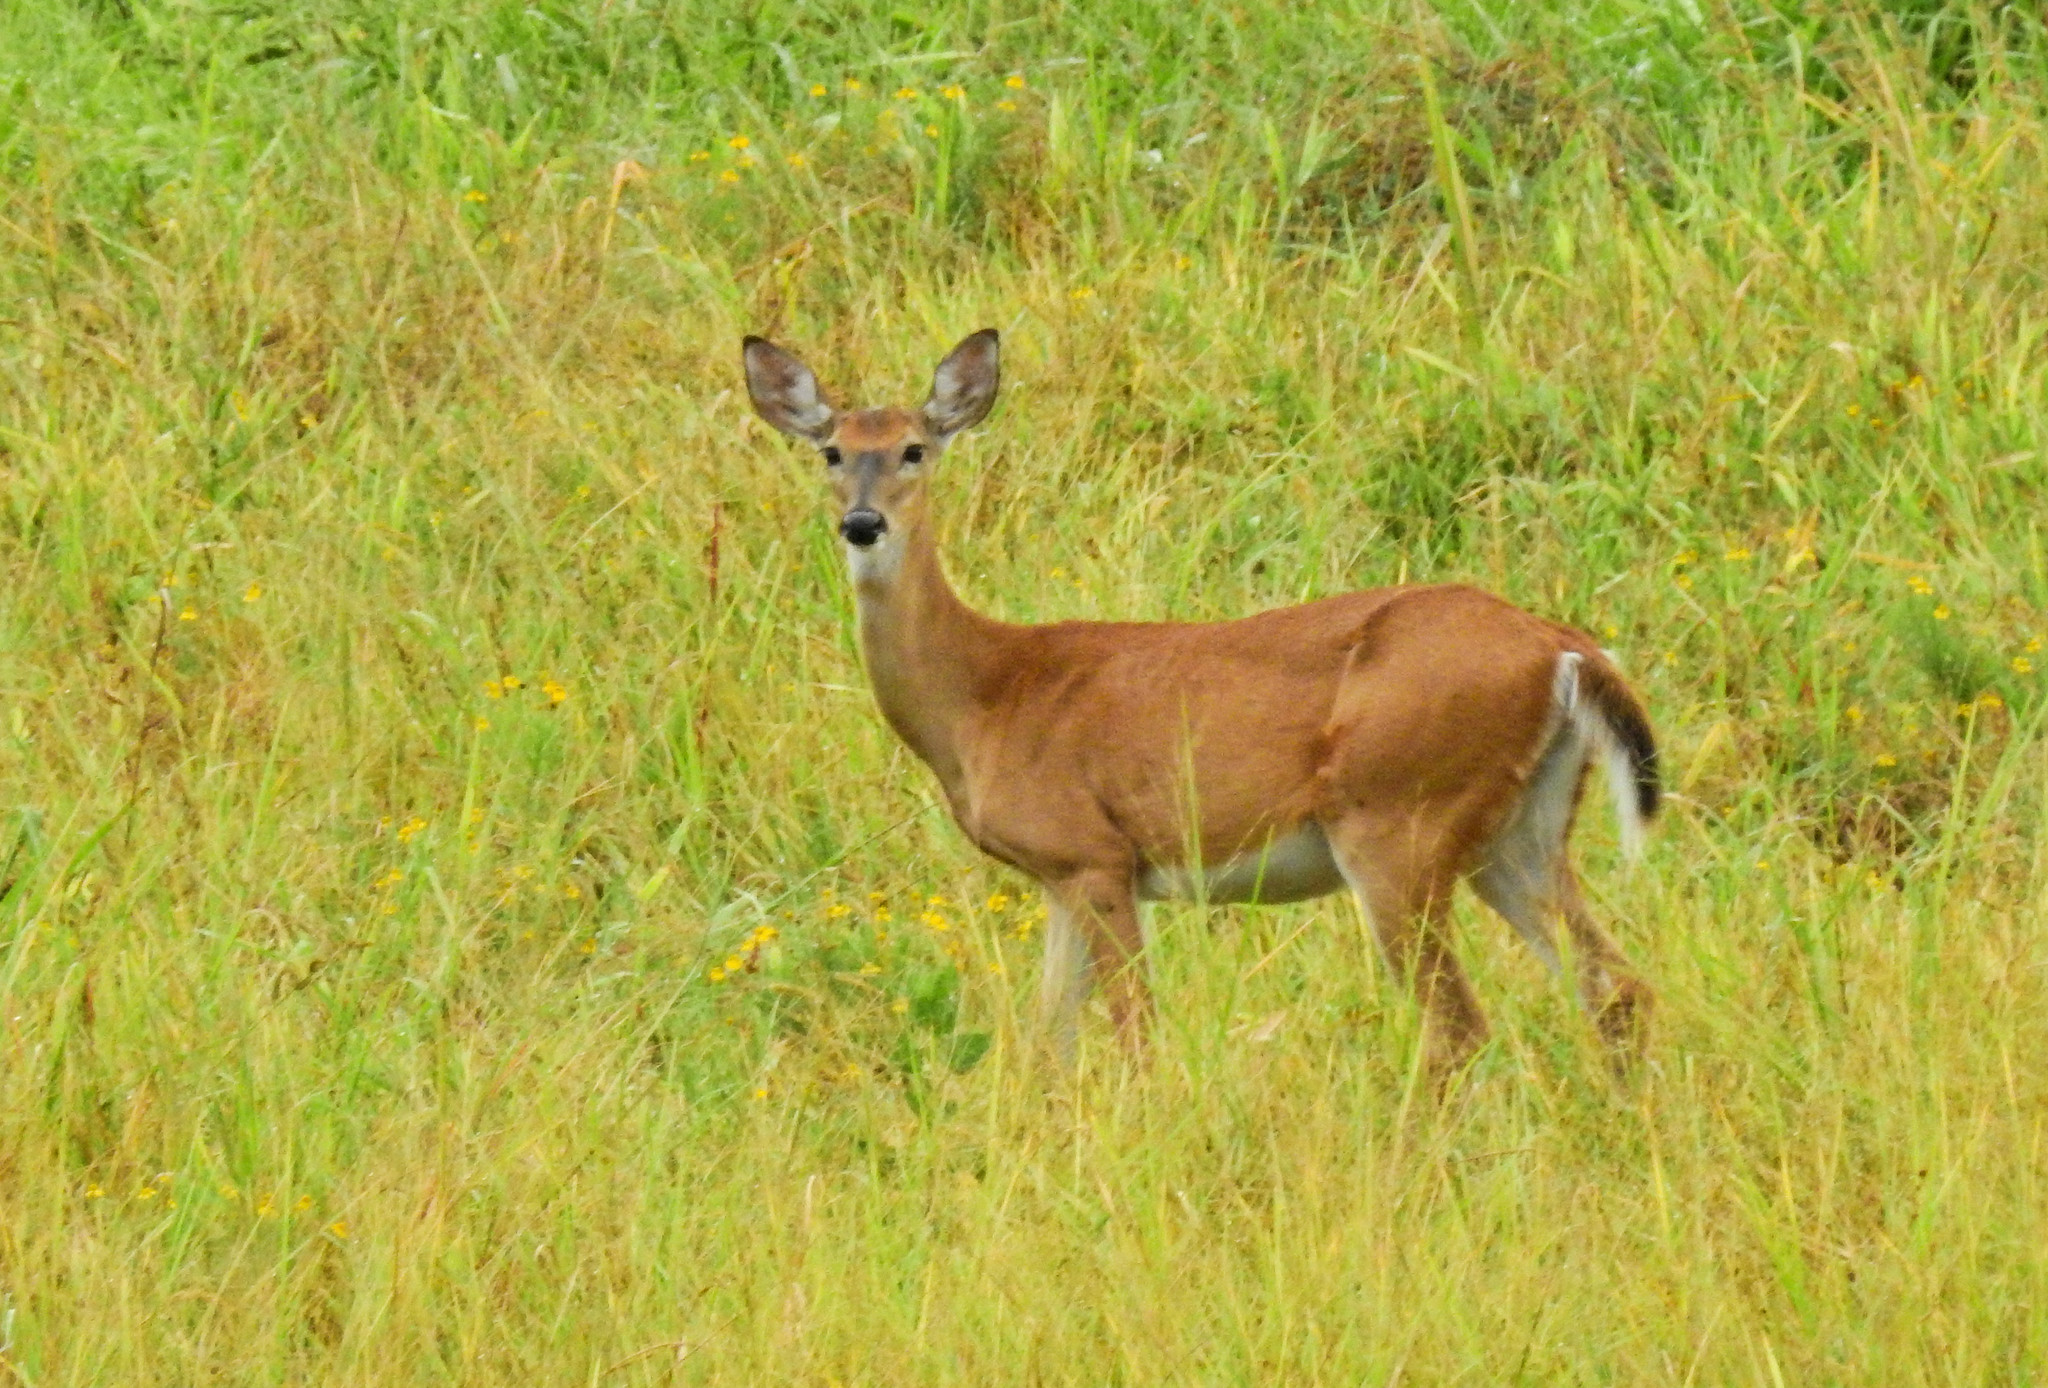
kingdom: Animalia
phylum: Chordata
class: Mammalia
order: Artiodactyla
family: Cervidae
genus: Odocoileus
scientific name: Odocoileus virginianus
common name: White-tailed deer
